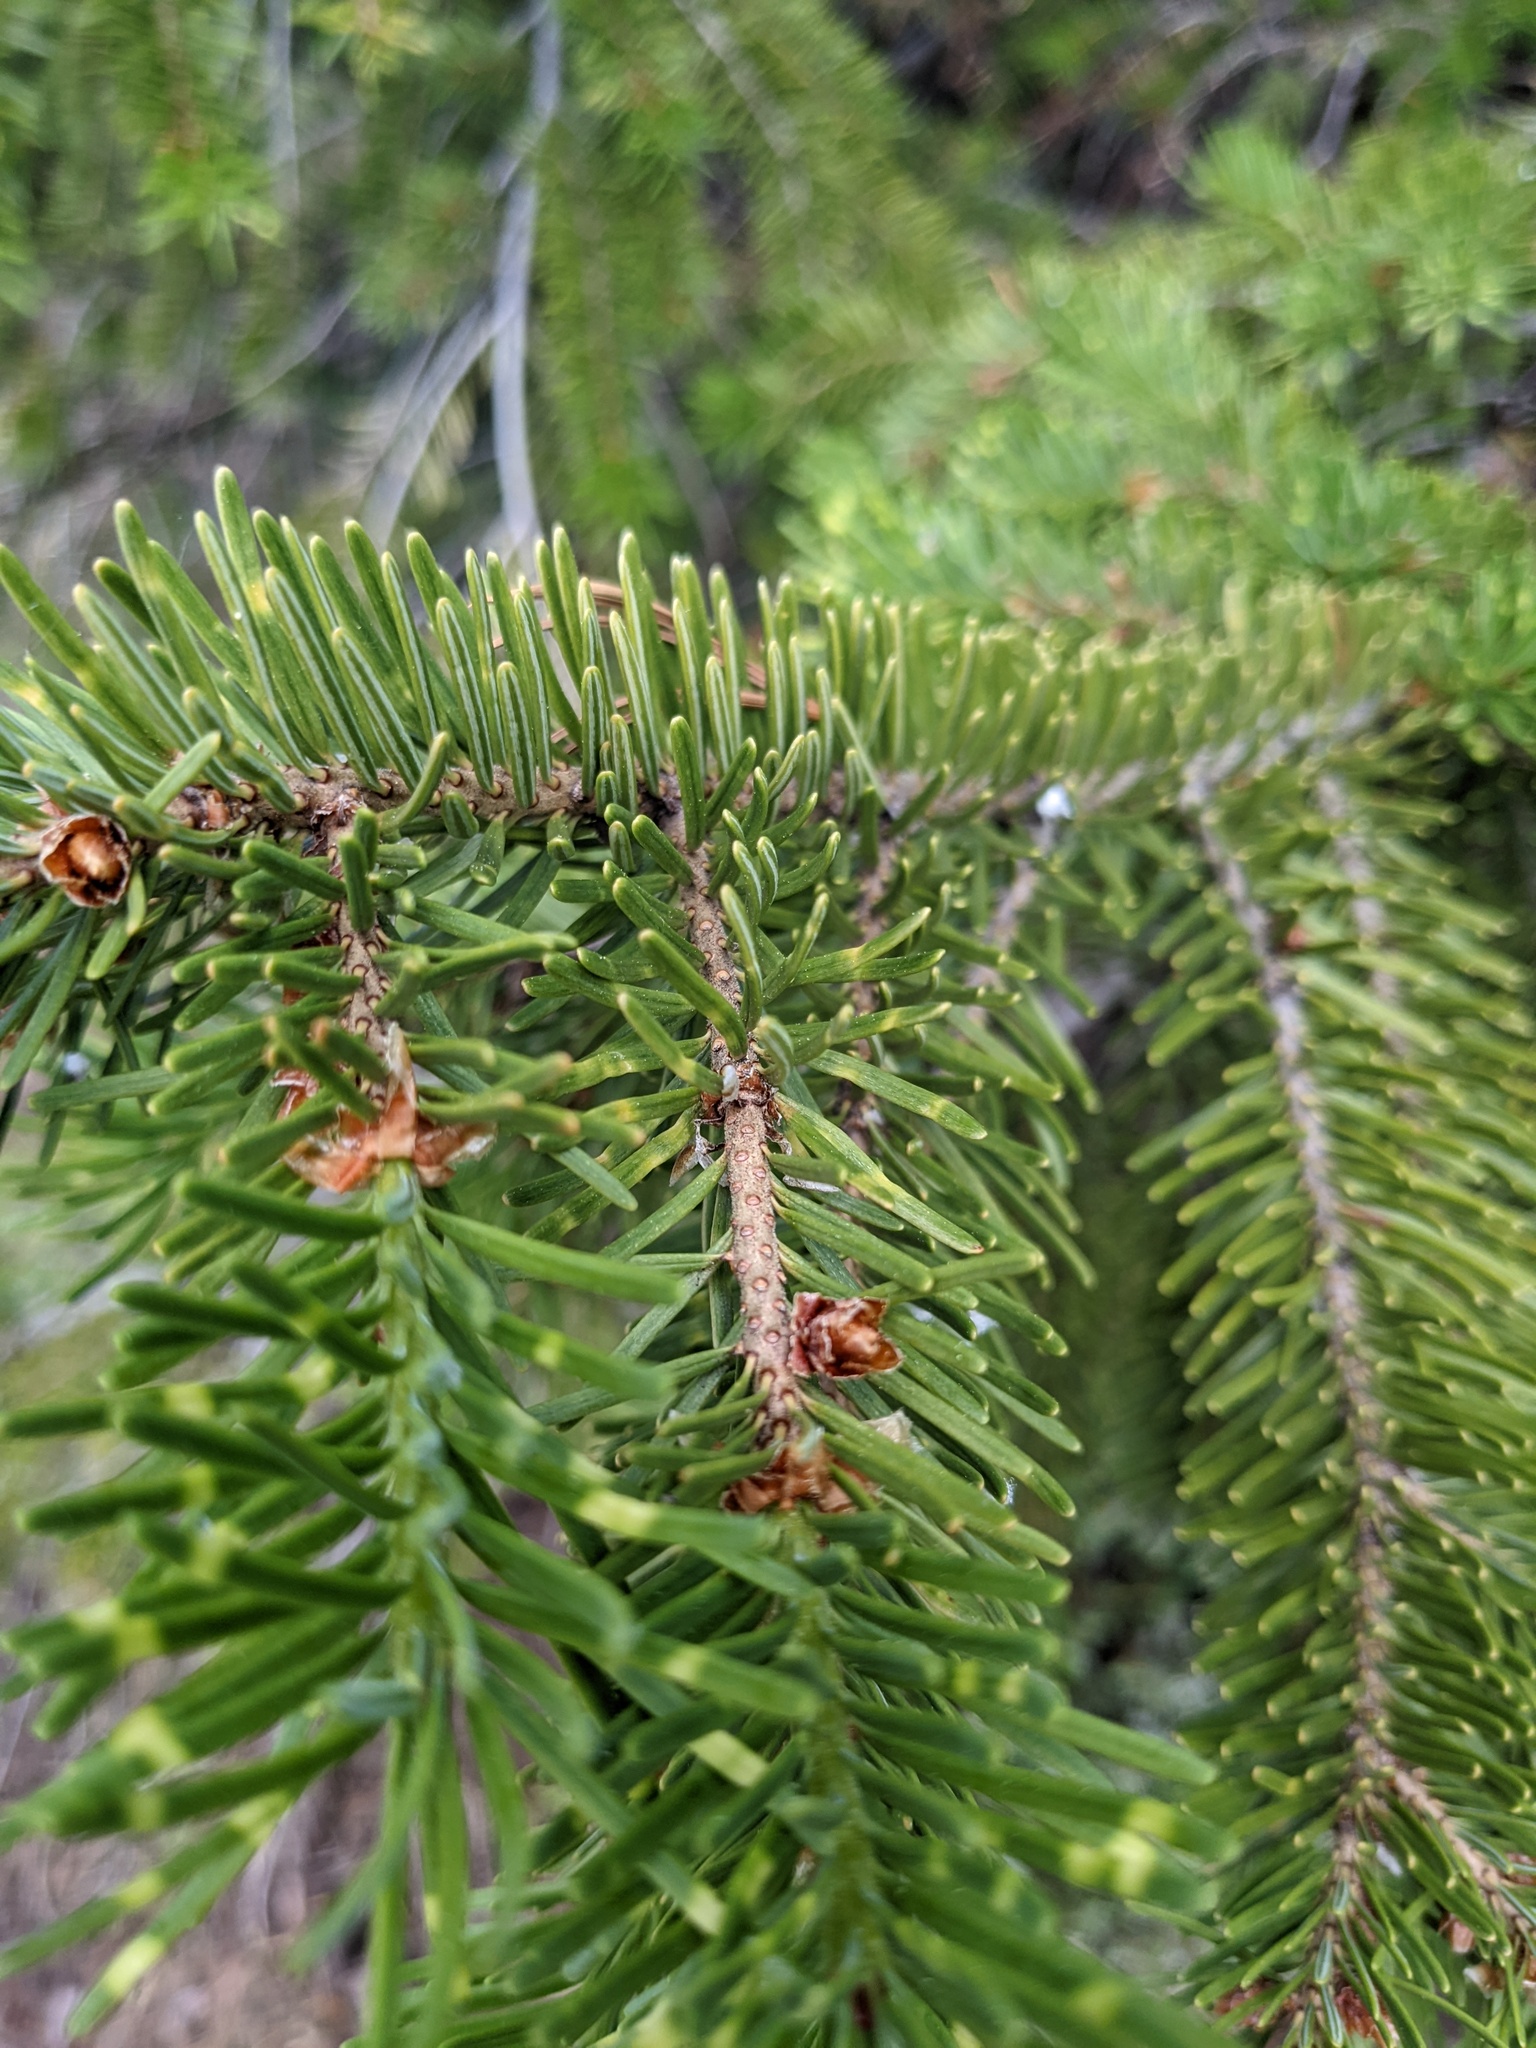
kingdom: Plantae
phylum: Tracheophyta
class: Pinopsida
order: Pinales
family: Pinaceae
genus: Pseudotsuga
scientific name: Pseudotsuga menziesii
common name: Douglas fir
